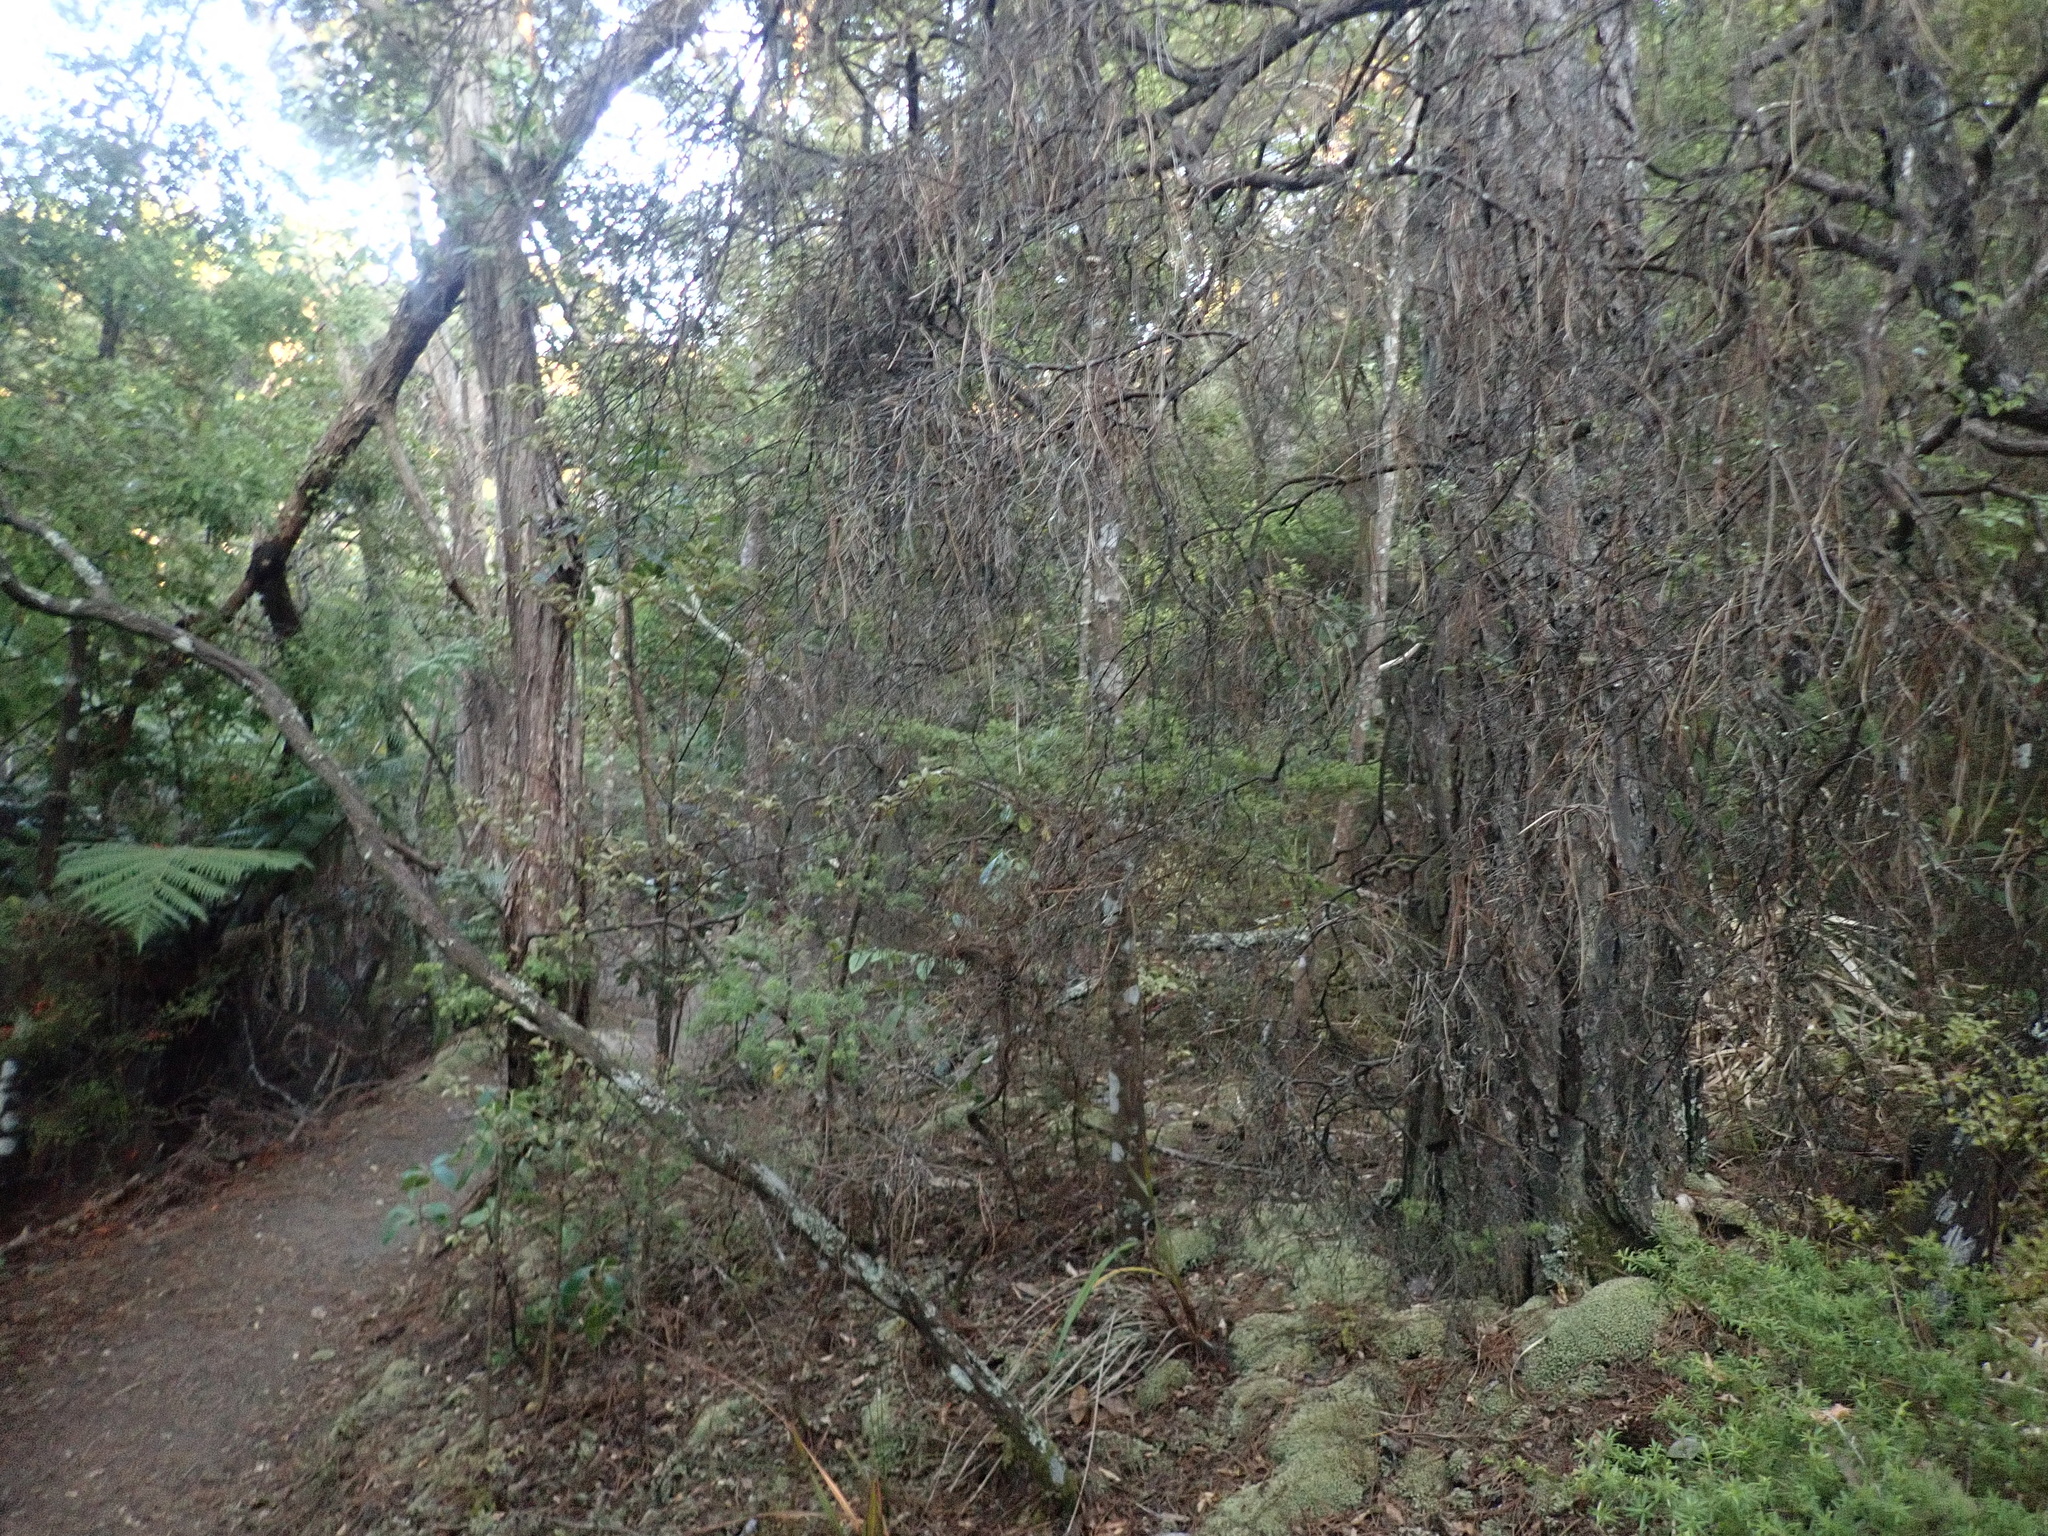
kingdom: Plantae
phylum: Bryophyta
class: Bryopsida
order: Dicranales
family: Leucobryaceae
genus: Leucobryum
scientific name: Leucobryum javense
